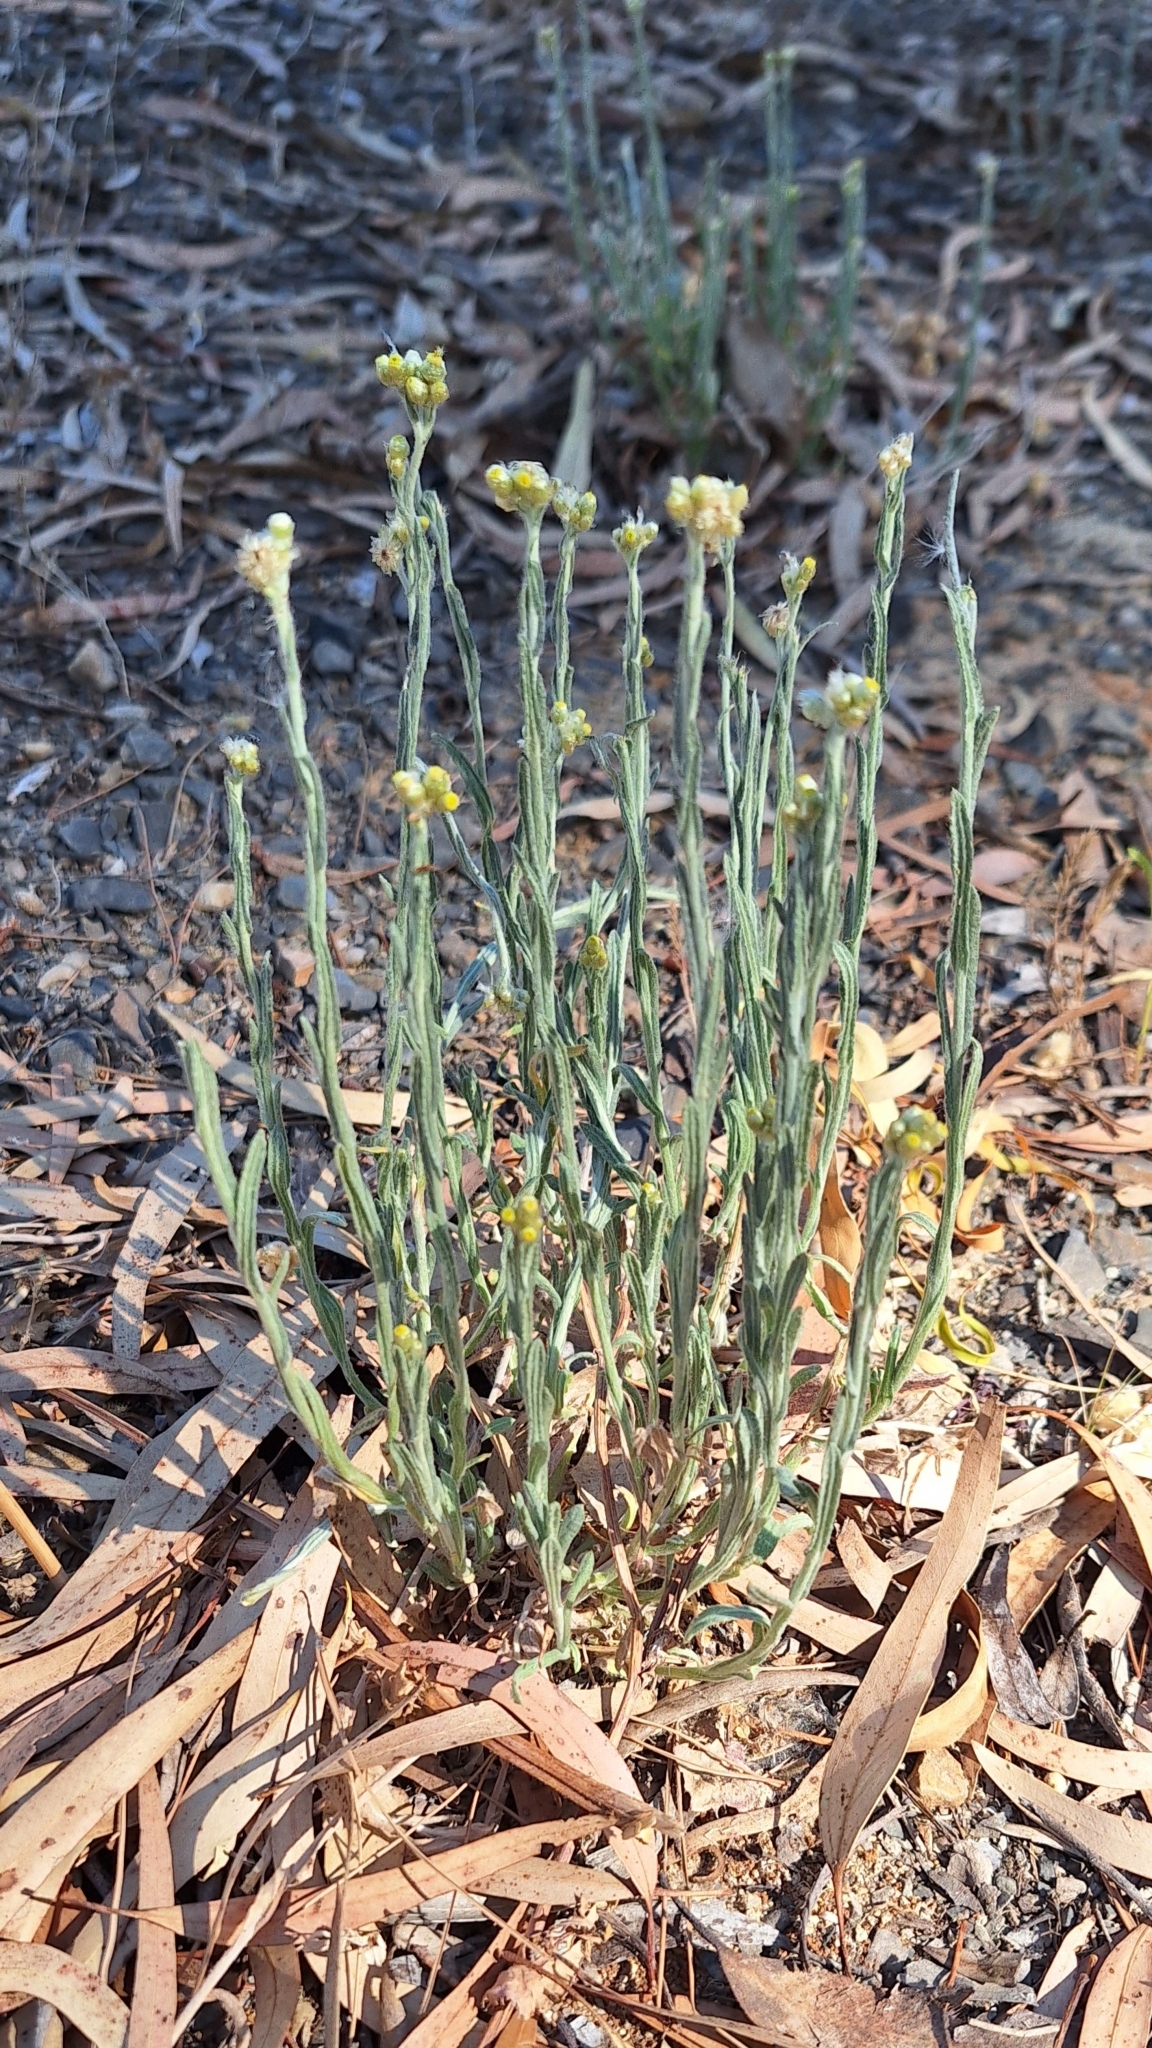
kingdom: Plantae
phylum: Tracheophyta
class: Magnoliopsida
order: Asterales
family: Asteraceae
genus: Helichrysum
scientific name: Helichrysum luteoalbum
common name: Daisy
